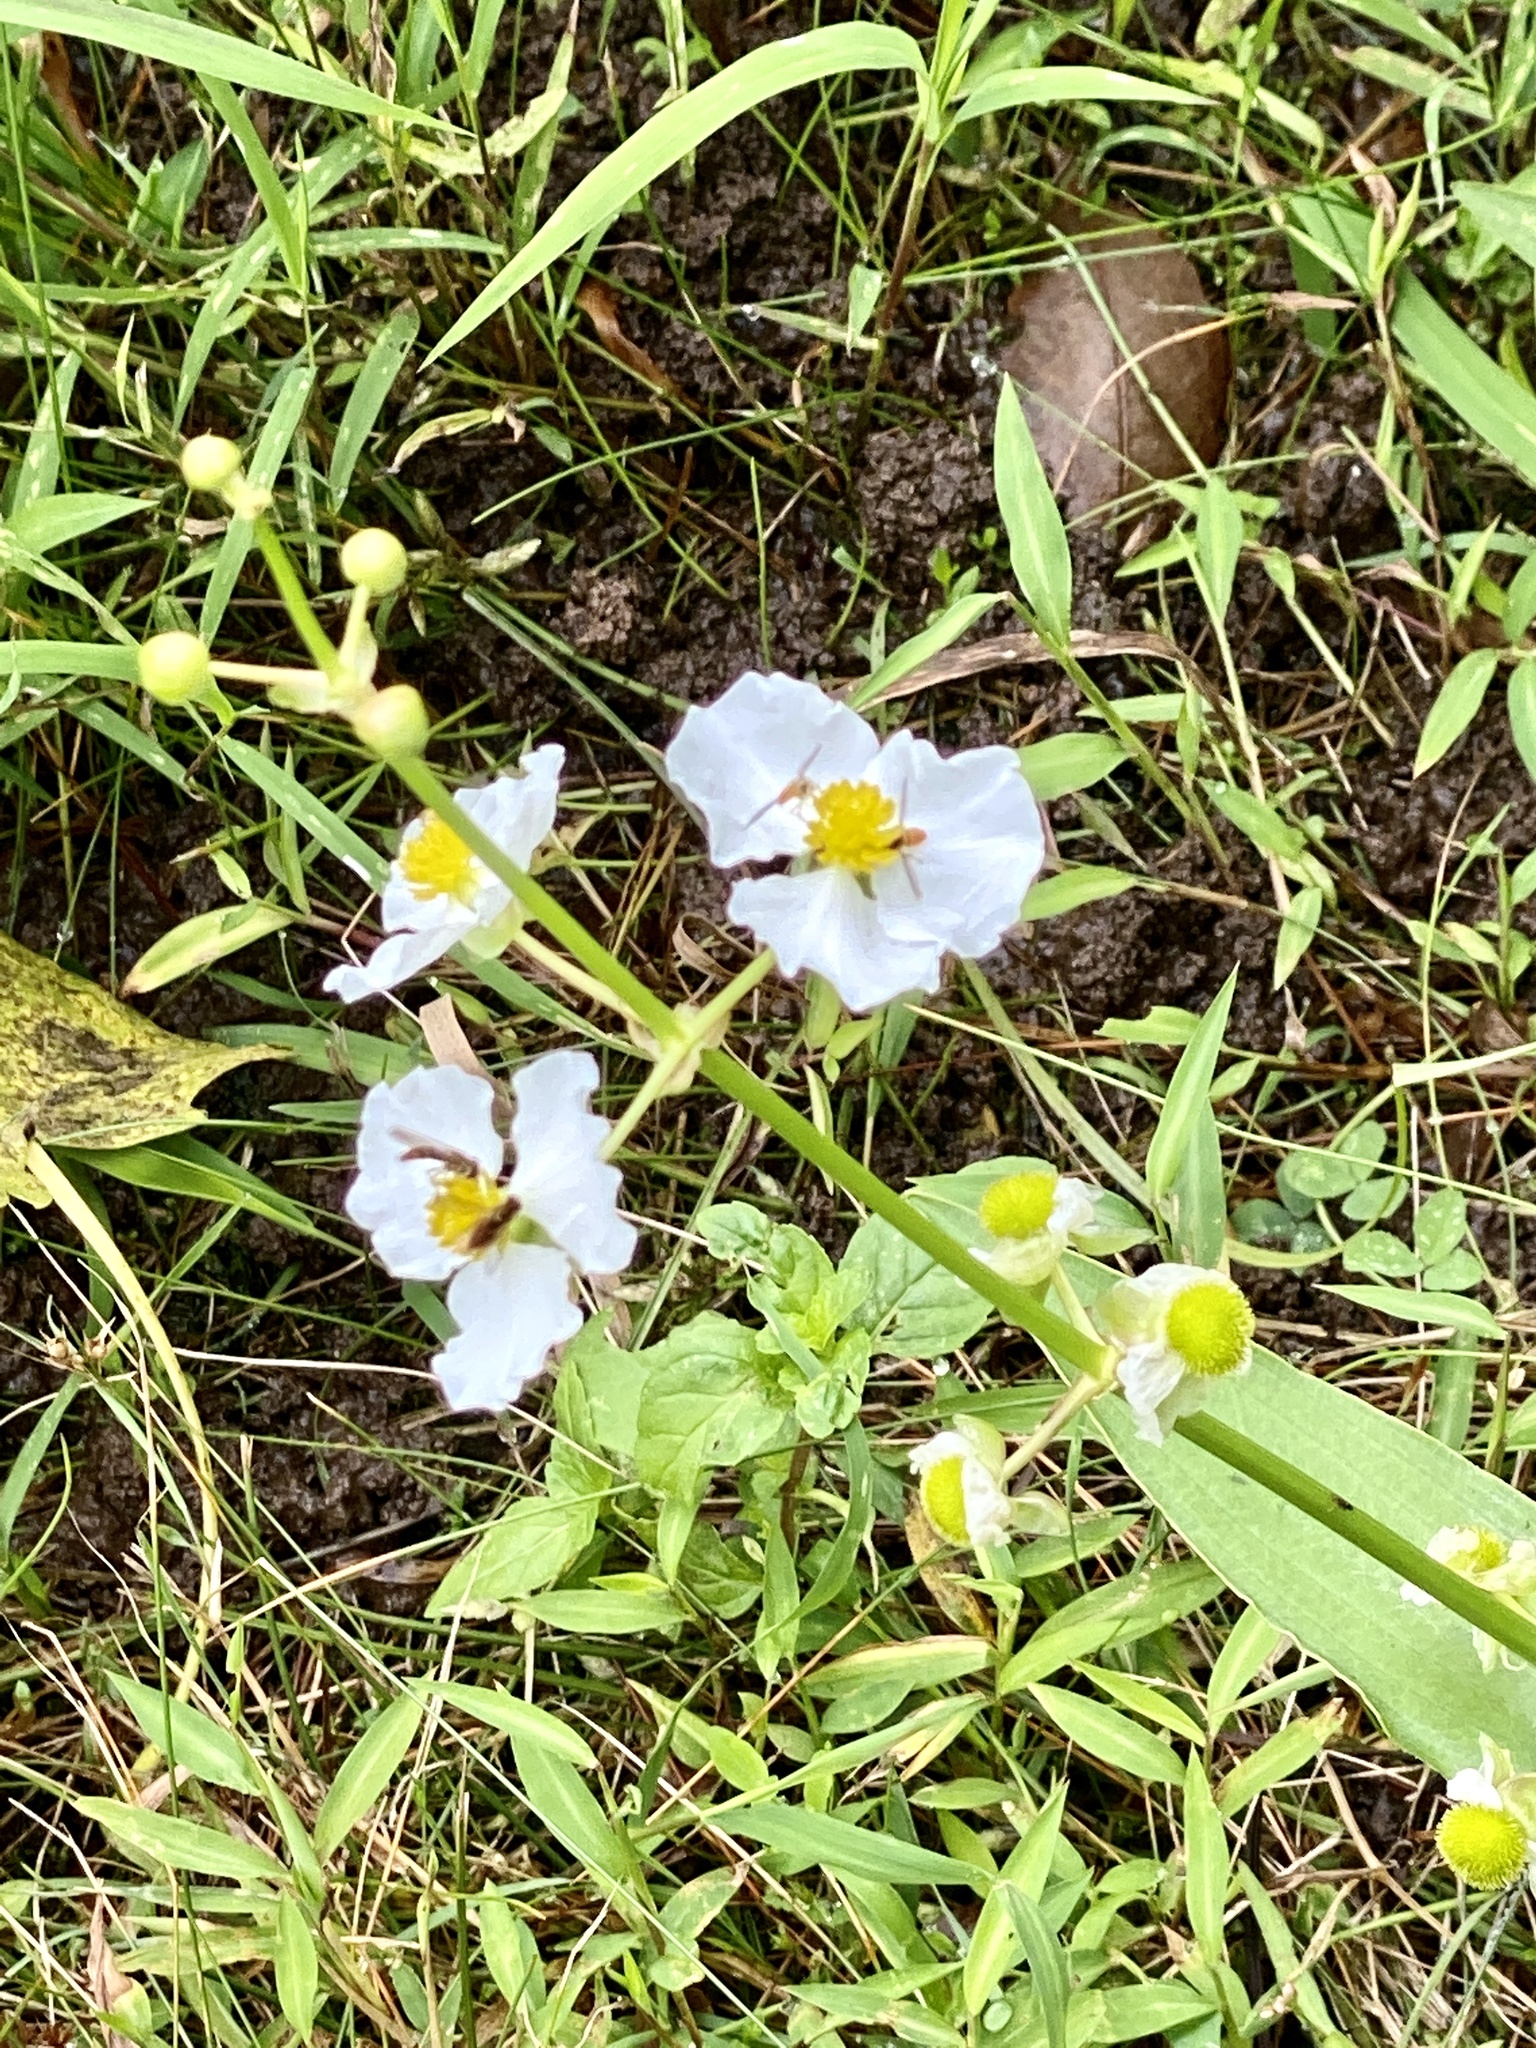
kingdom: Plantae
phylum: Tracheophyta
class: Liliopsida
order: Alismatales
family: Alismataceae
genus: Sagittaria
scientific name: Sagittaria latifolia
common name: Duck-potato
